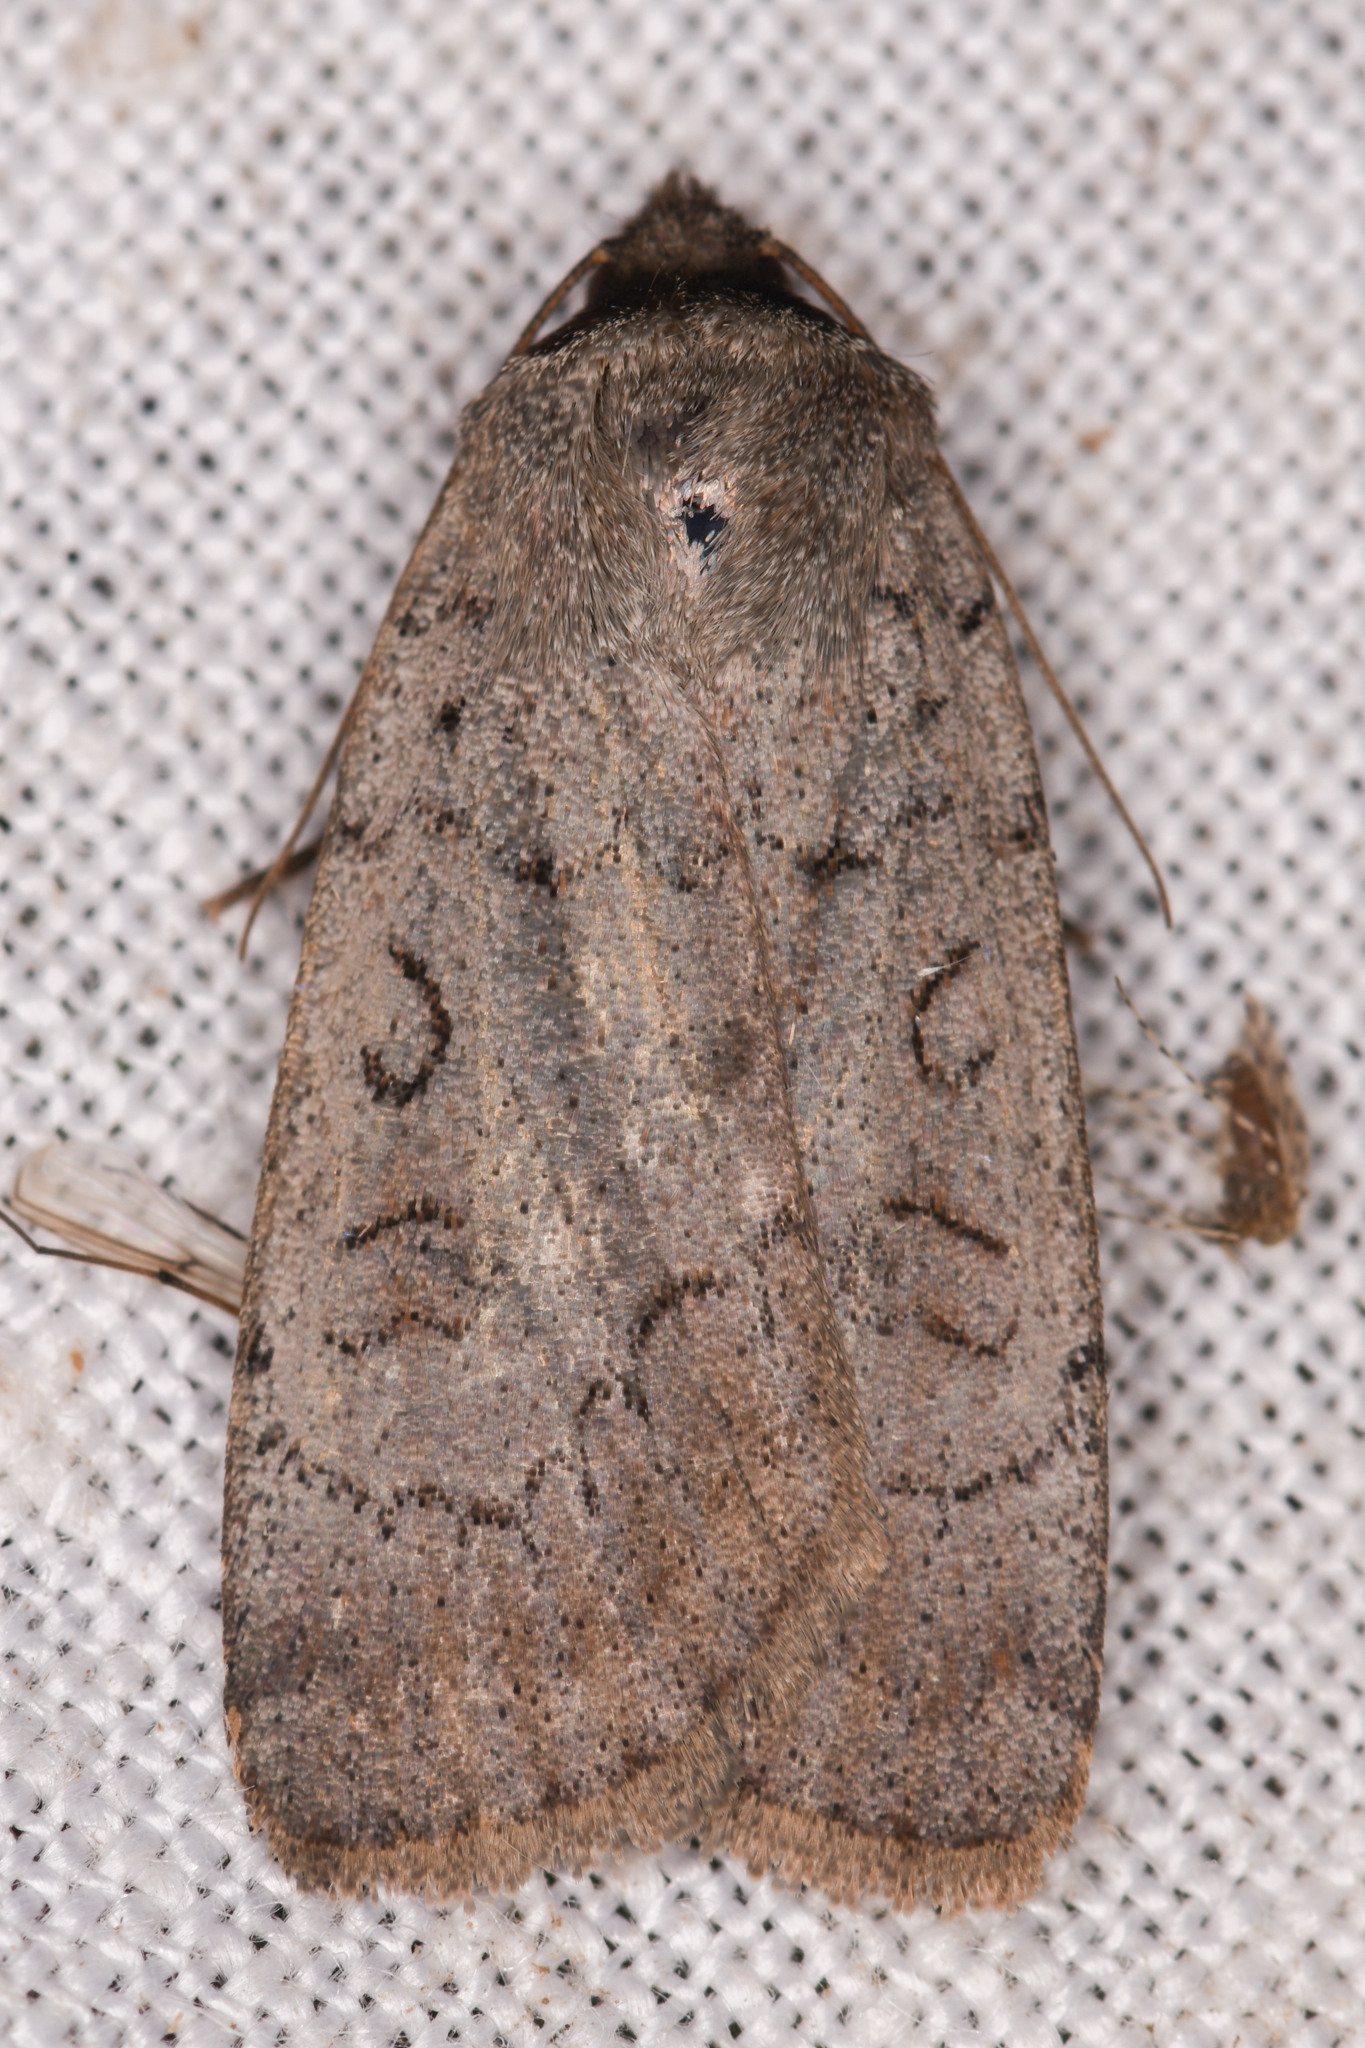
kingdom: Animalia
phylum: Arthropoda
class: Insecta
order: Lepidoptera
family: Noctuidae
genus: Graphiphora
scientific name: Graphiphora augur
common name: Double dart
